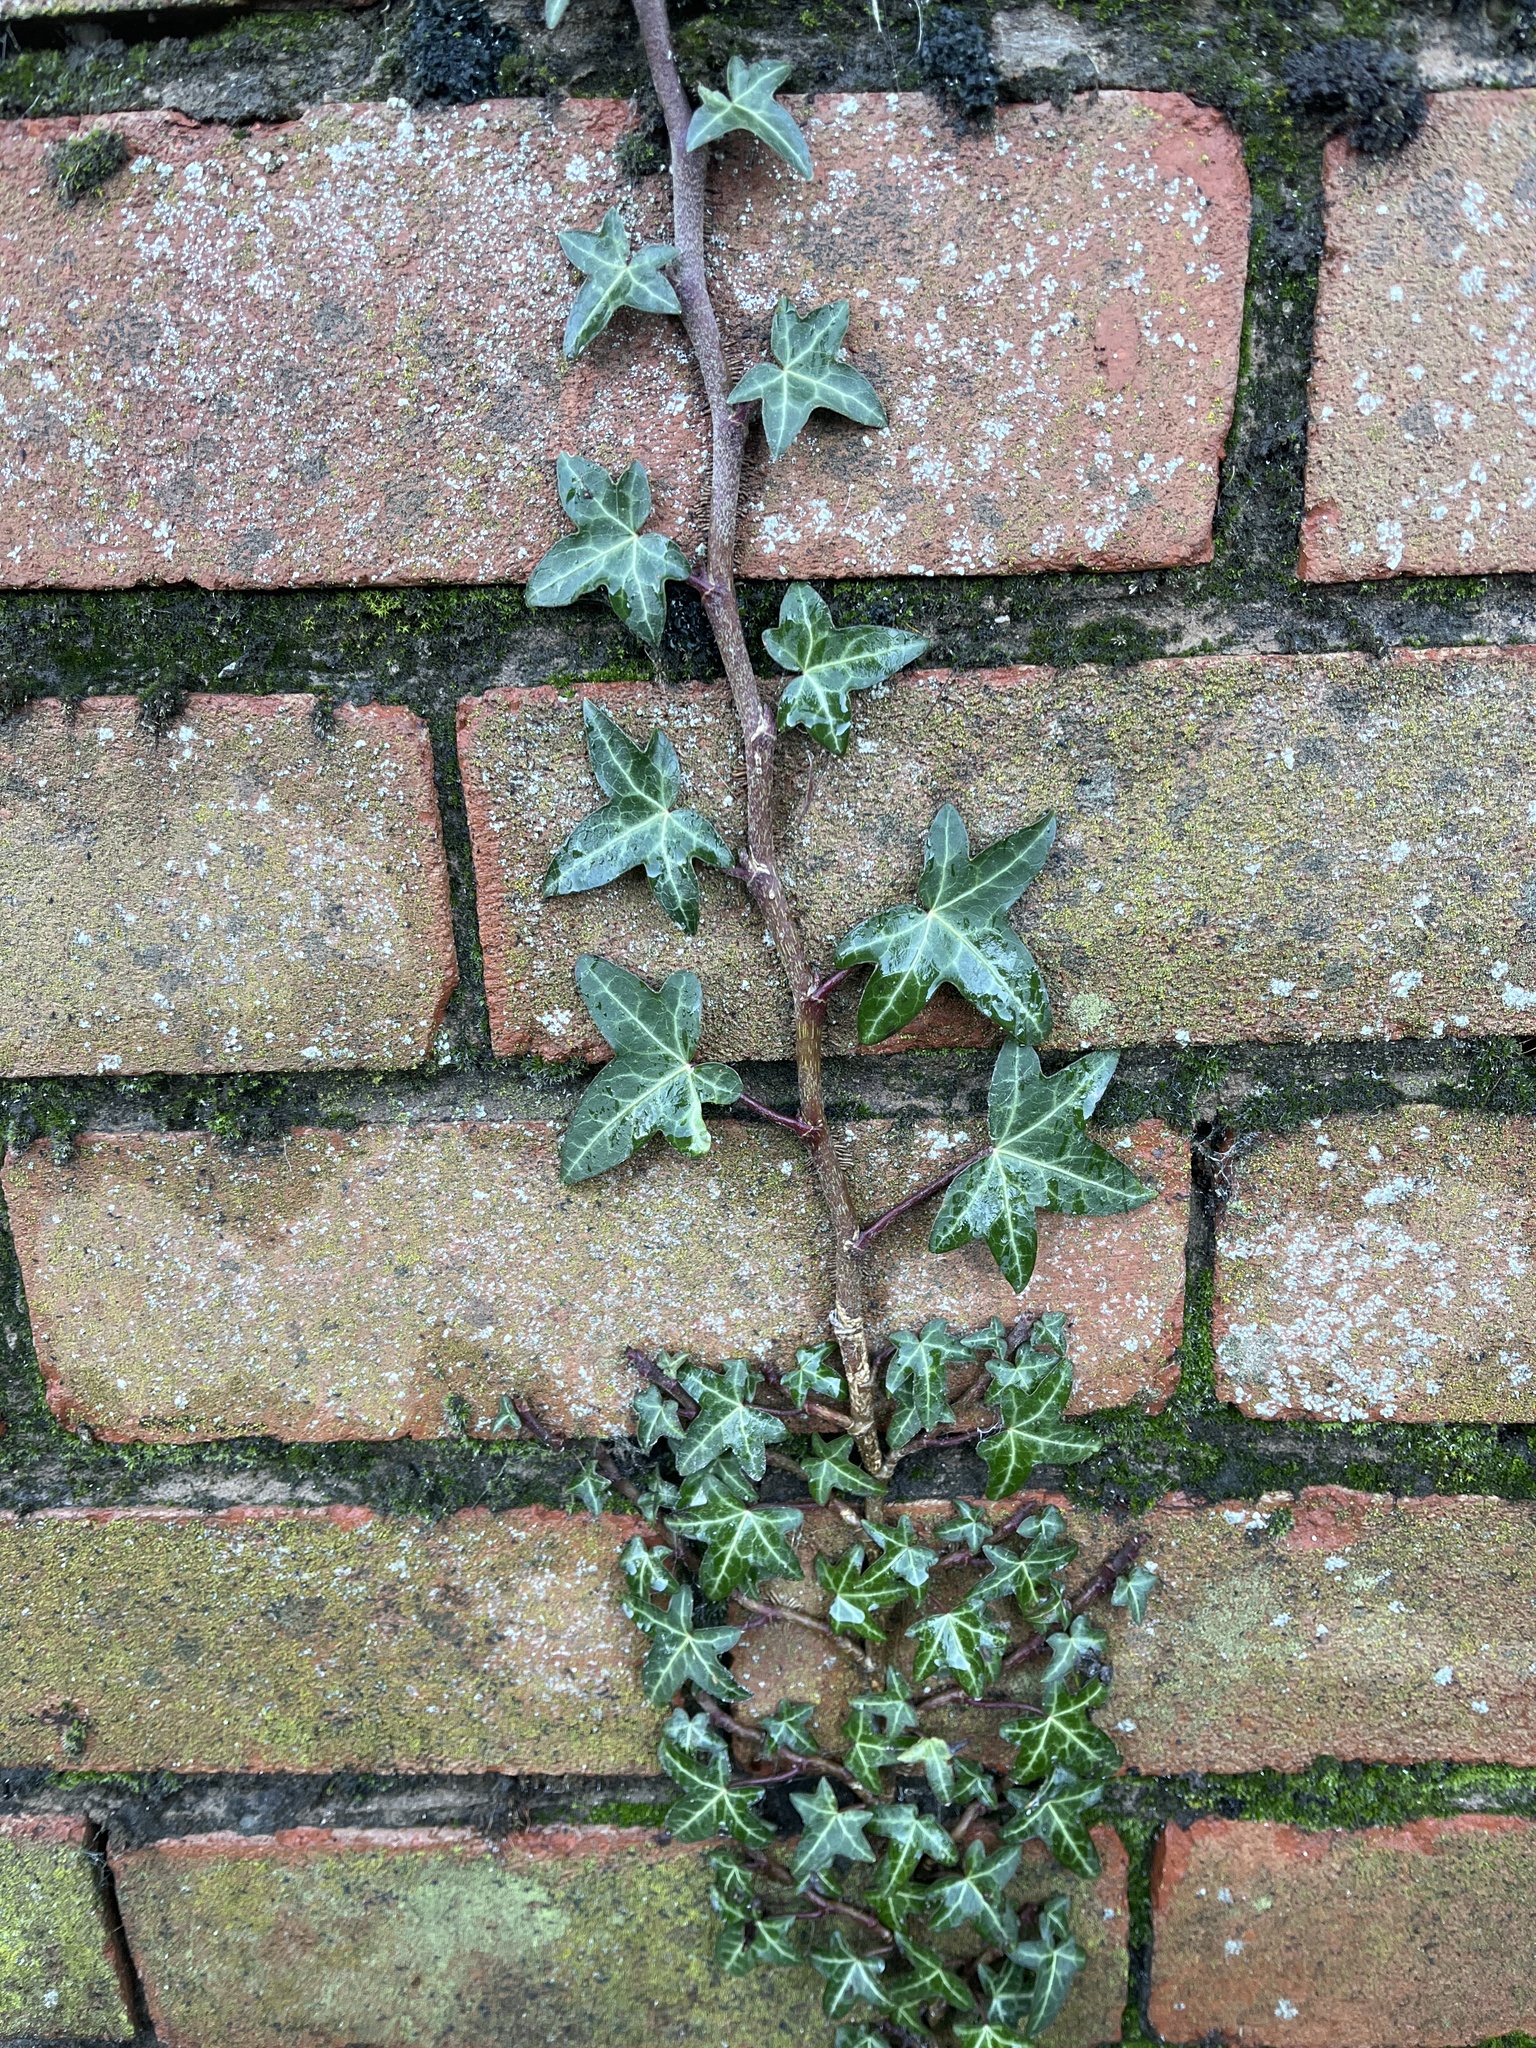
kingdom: Plantae
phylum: Tracheophyta
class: Magnoliopsida
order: Apiales
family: Araliaceae
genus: Hedera
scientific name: Hedera helix
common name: Ivy
